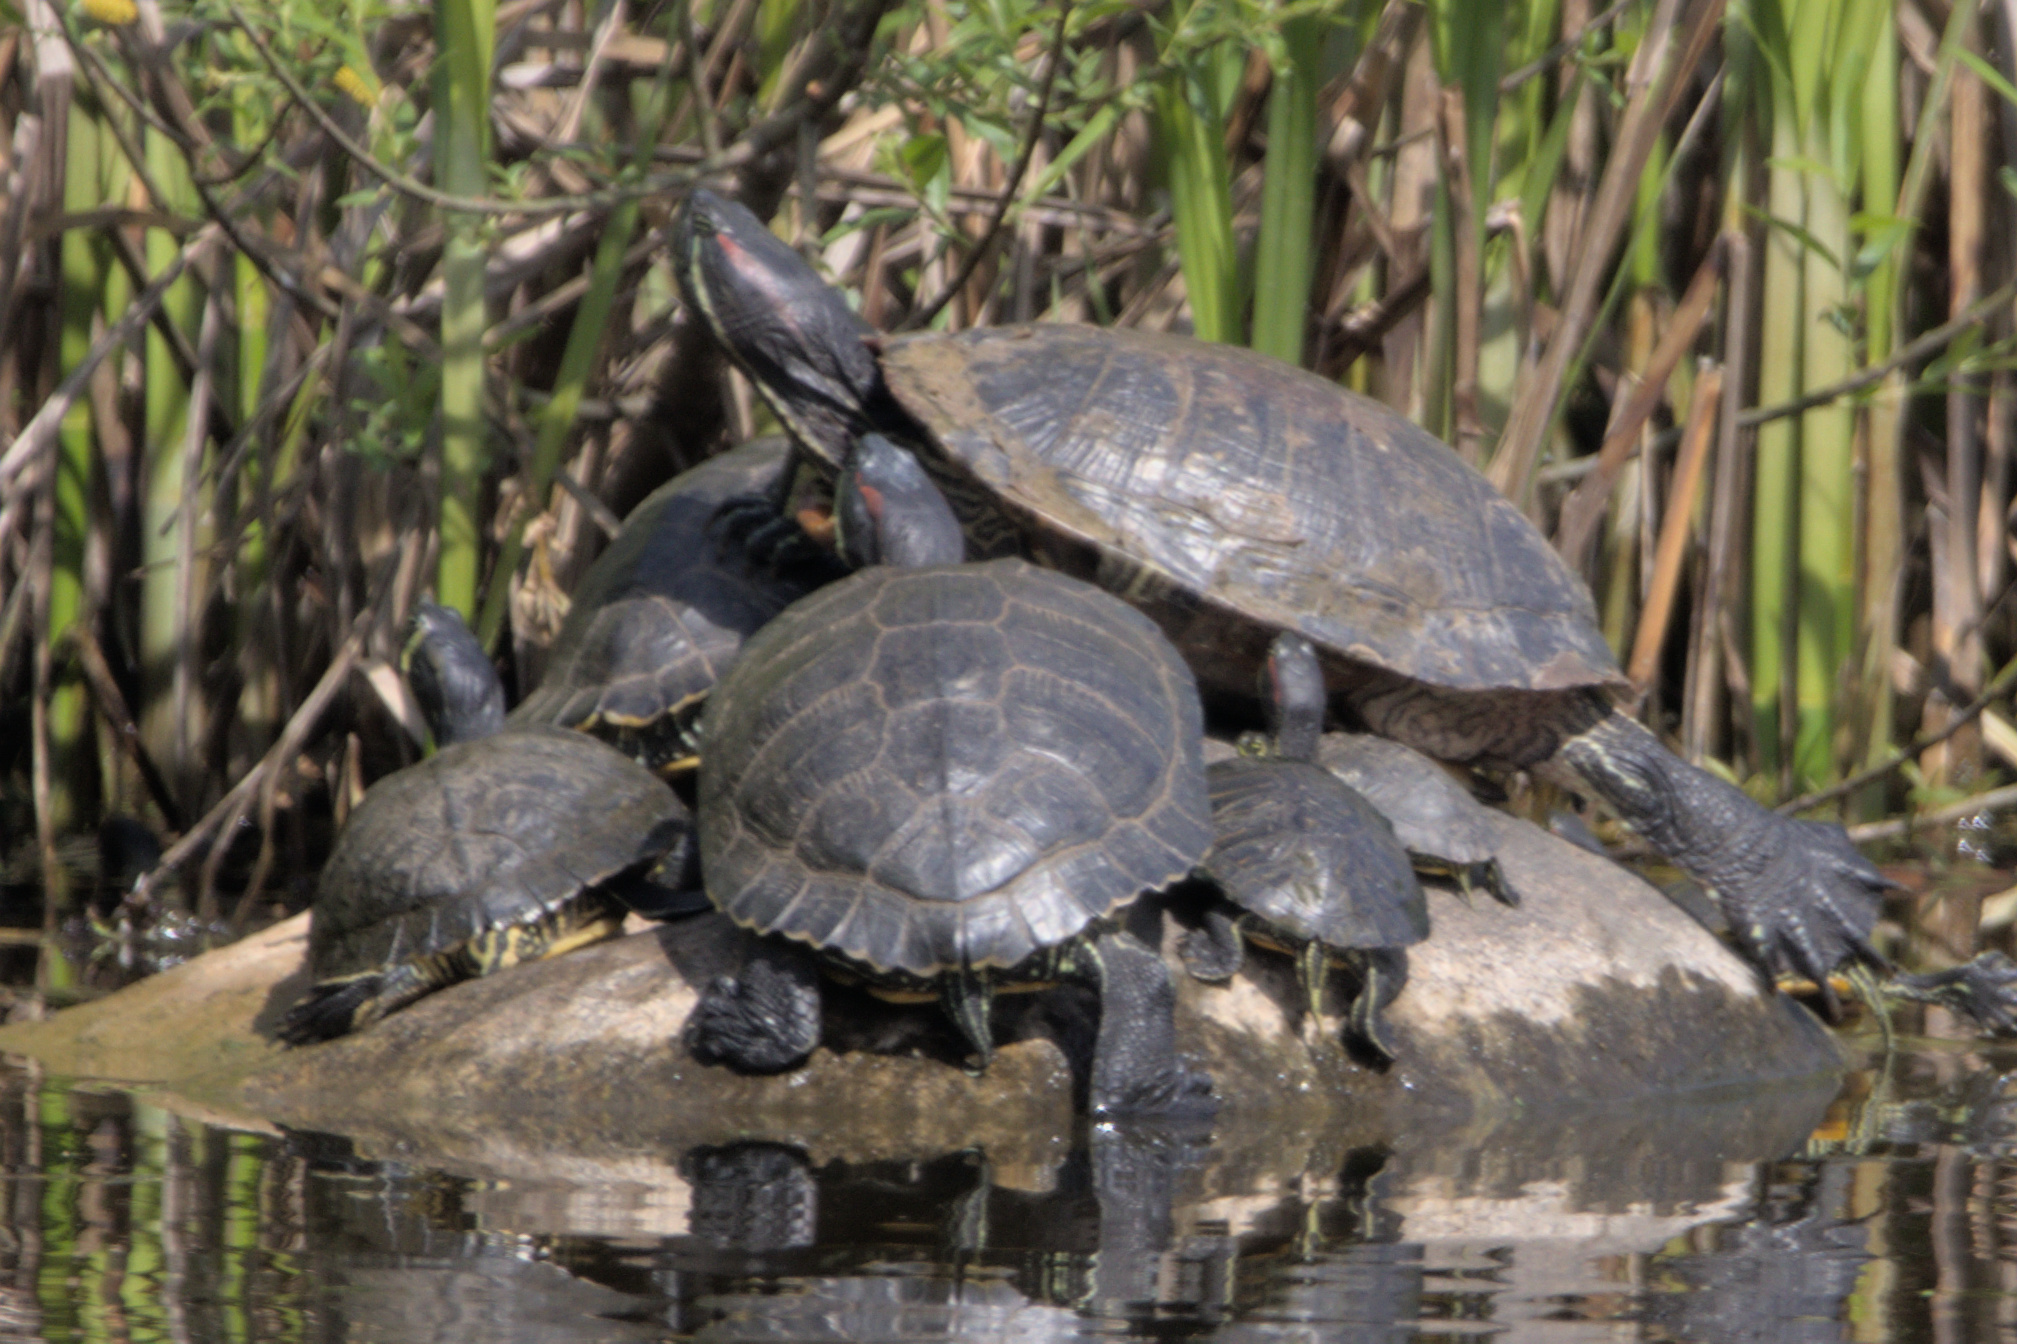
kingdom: Animalia
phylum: Chordata
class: Testudines
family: Emydidae
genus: Trachemys
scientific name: Trachemys scripta
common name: Slider
